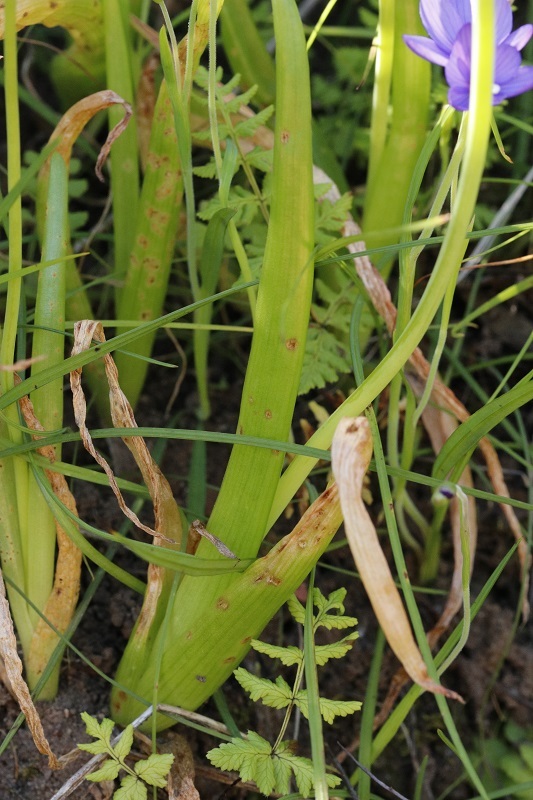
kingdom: Plantae
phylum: Tracheophyta
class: Liliopsida
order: Asparagales
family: Iridaceae
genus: Geissorhiza
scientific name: Geissorhiza aspera
